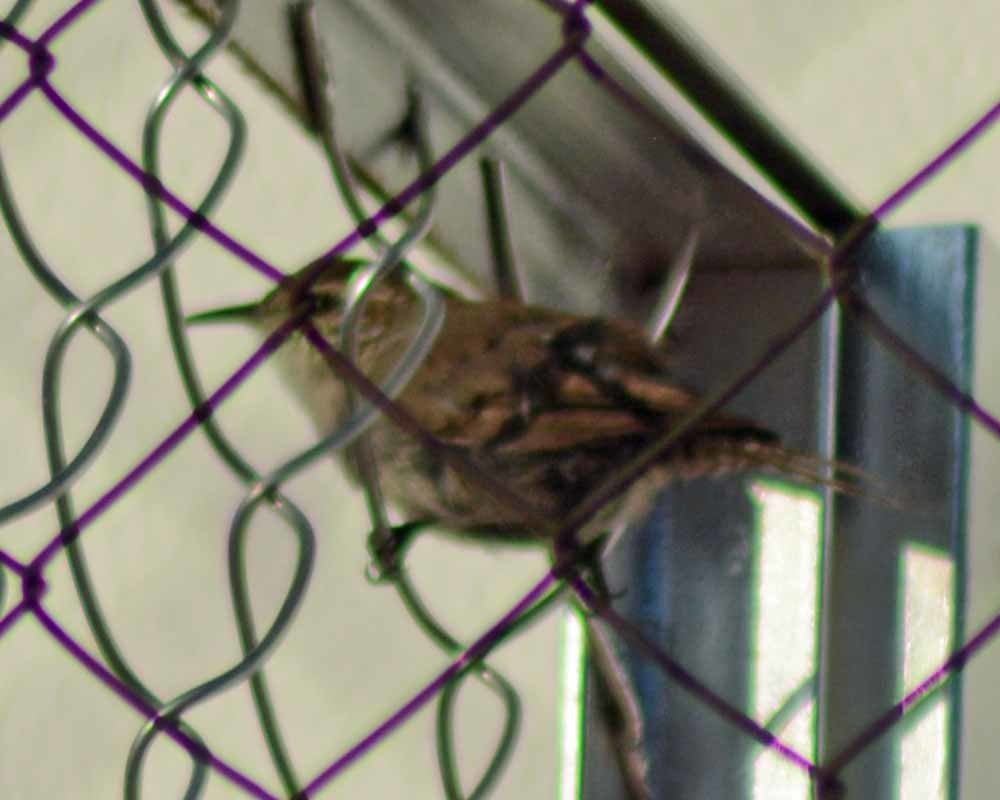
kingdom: Animalia
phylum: Chordata
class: Aves
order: Passeriformes
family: Troglodytidae
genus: Thryomanes
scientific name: Thryomanes bewickii
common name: Bewick's wren
